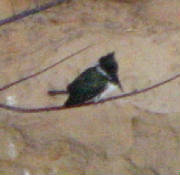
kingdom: Animalia
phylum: Chordata
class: Aves
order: Coraciiformes
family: Alcedinidae
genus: Chloroceryle
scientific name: Chloroceryle amazona
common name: Amazon kingfisher
